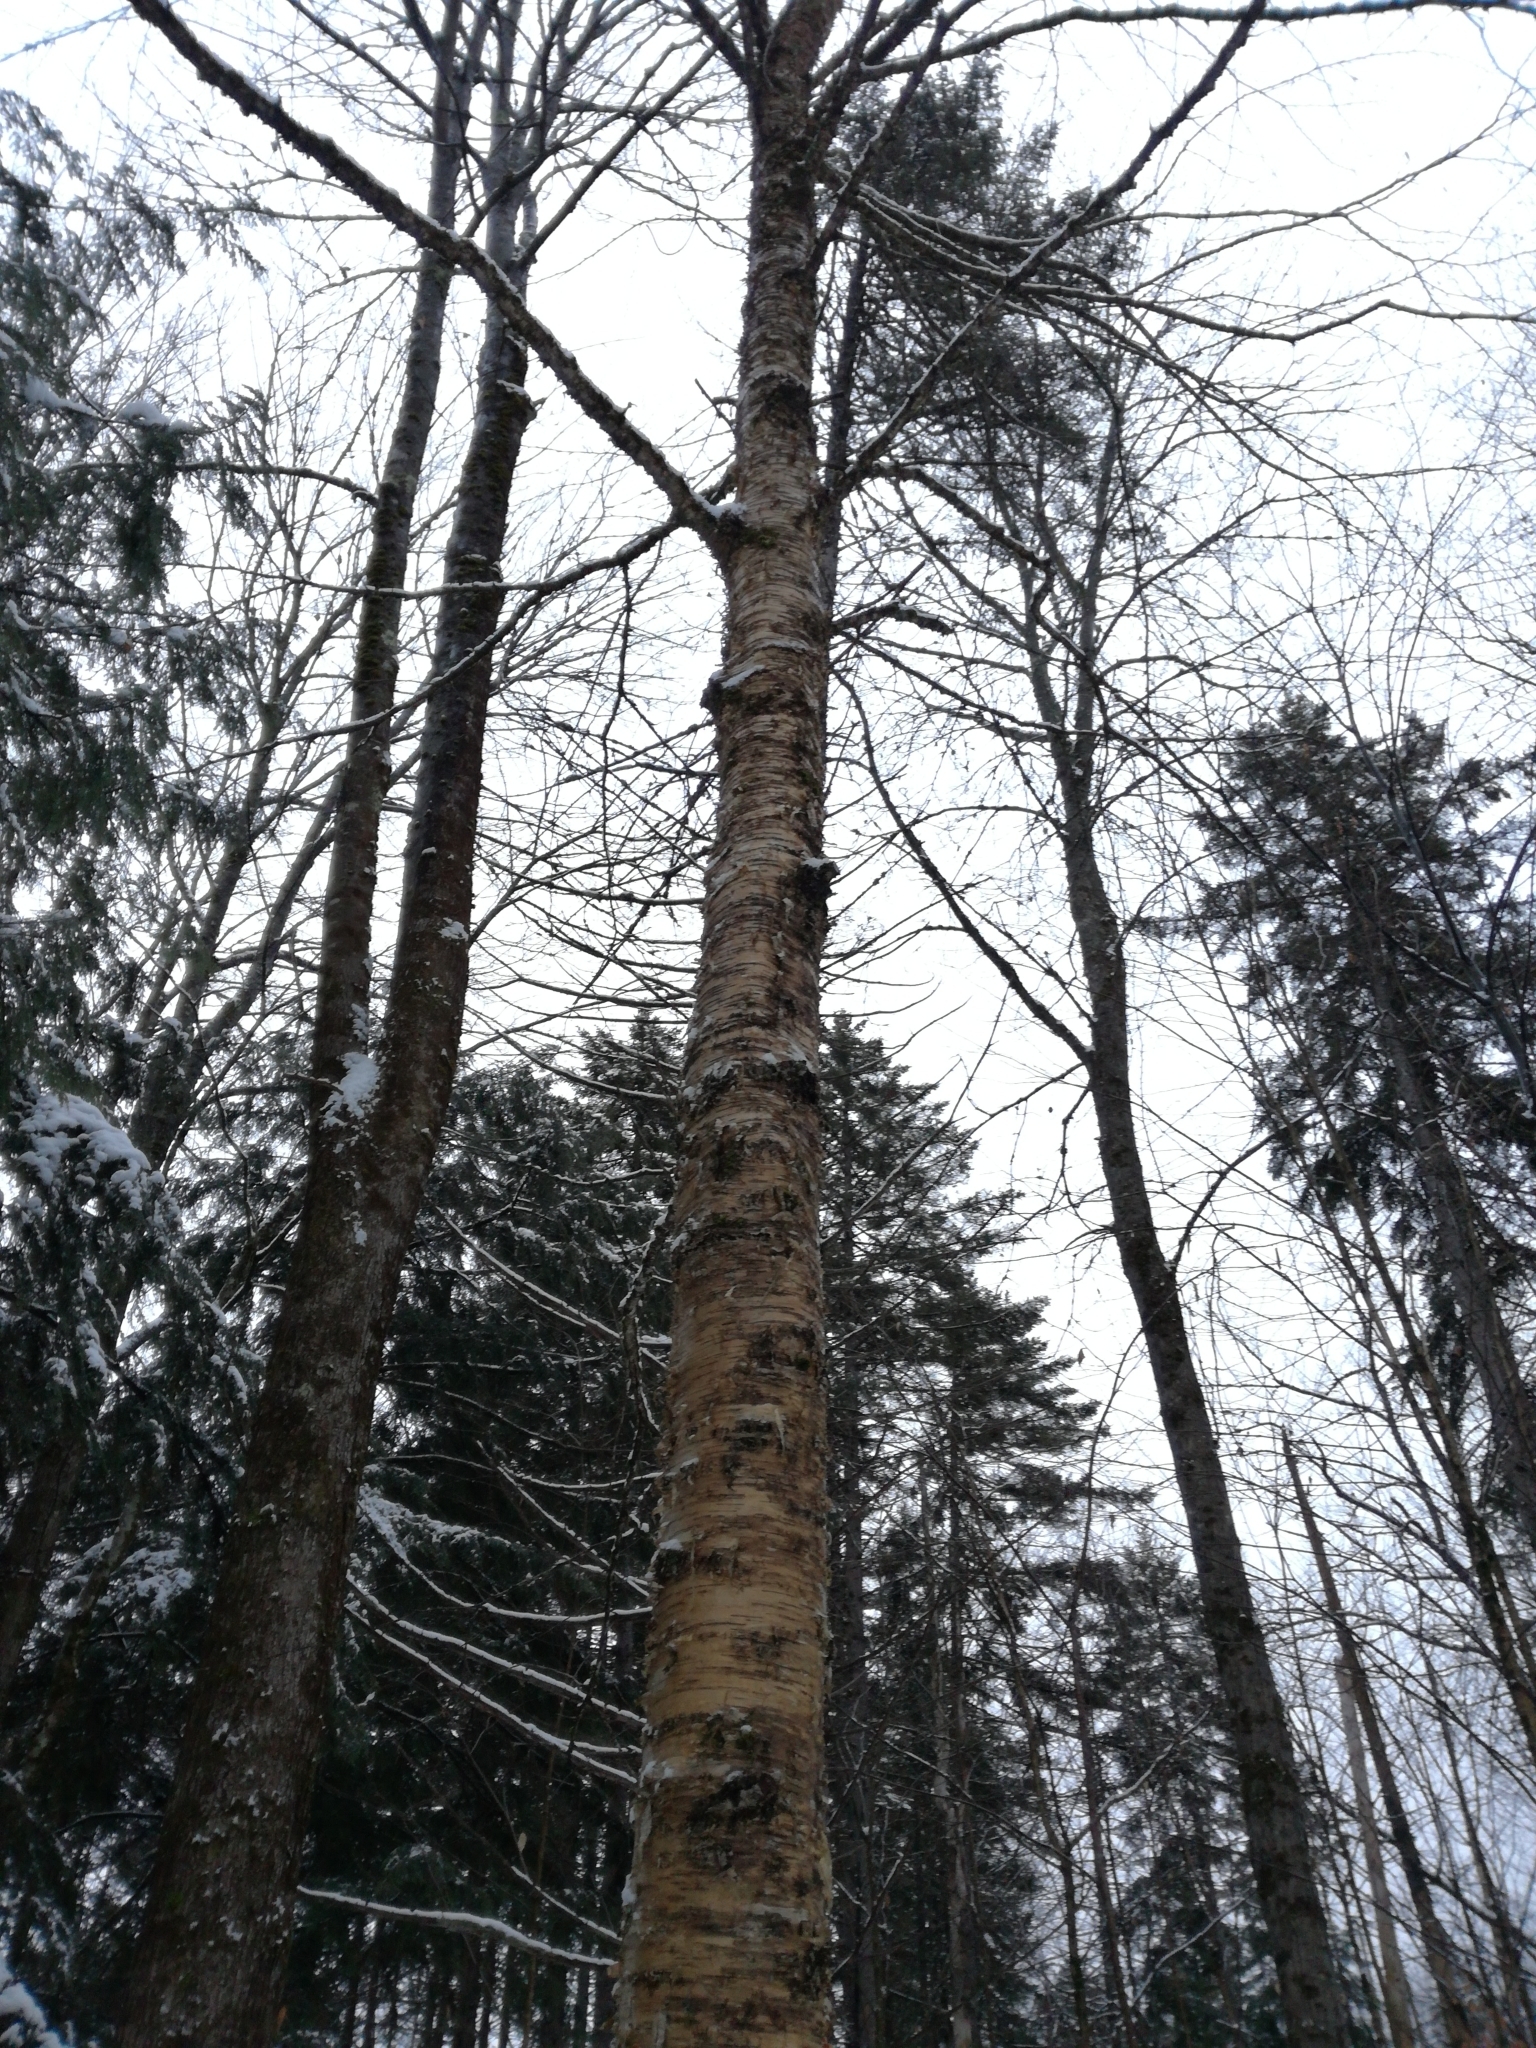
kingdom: Plantae
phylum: Tracheophyta
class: Magnoliopsida
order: Fagales
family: Betulaceae
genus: Betula
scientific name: Betula alleghaniensis
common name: Yellow birch
